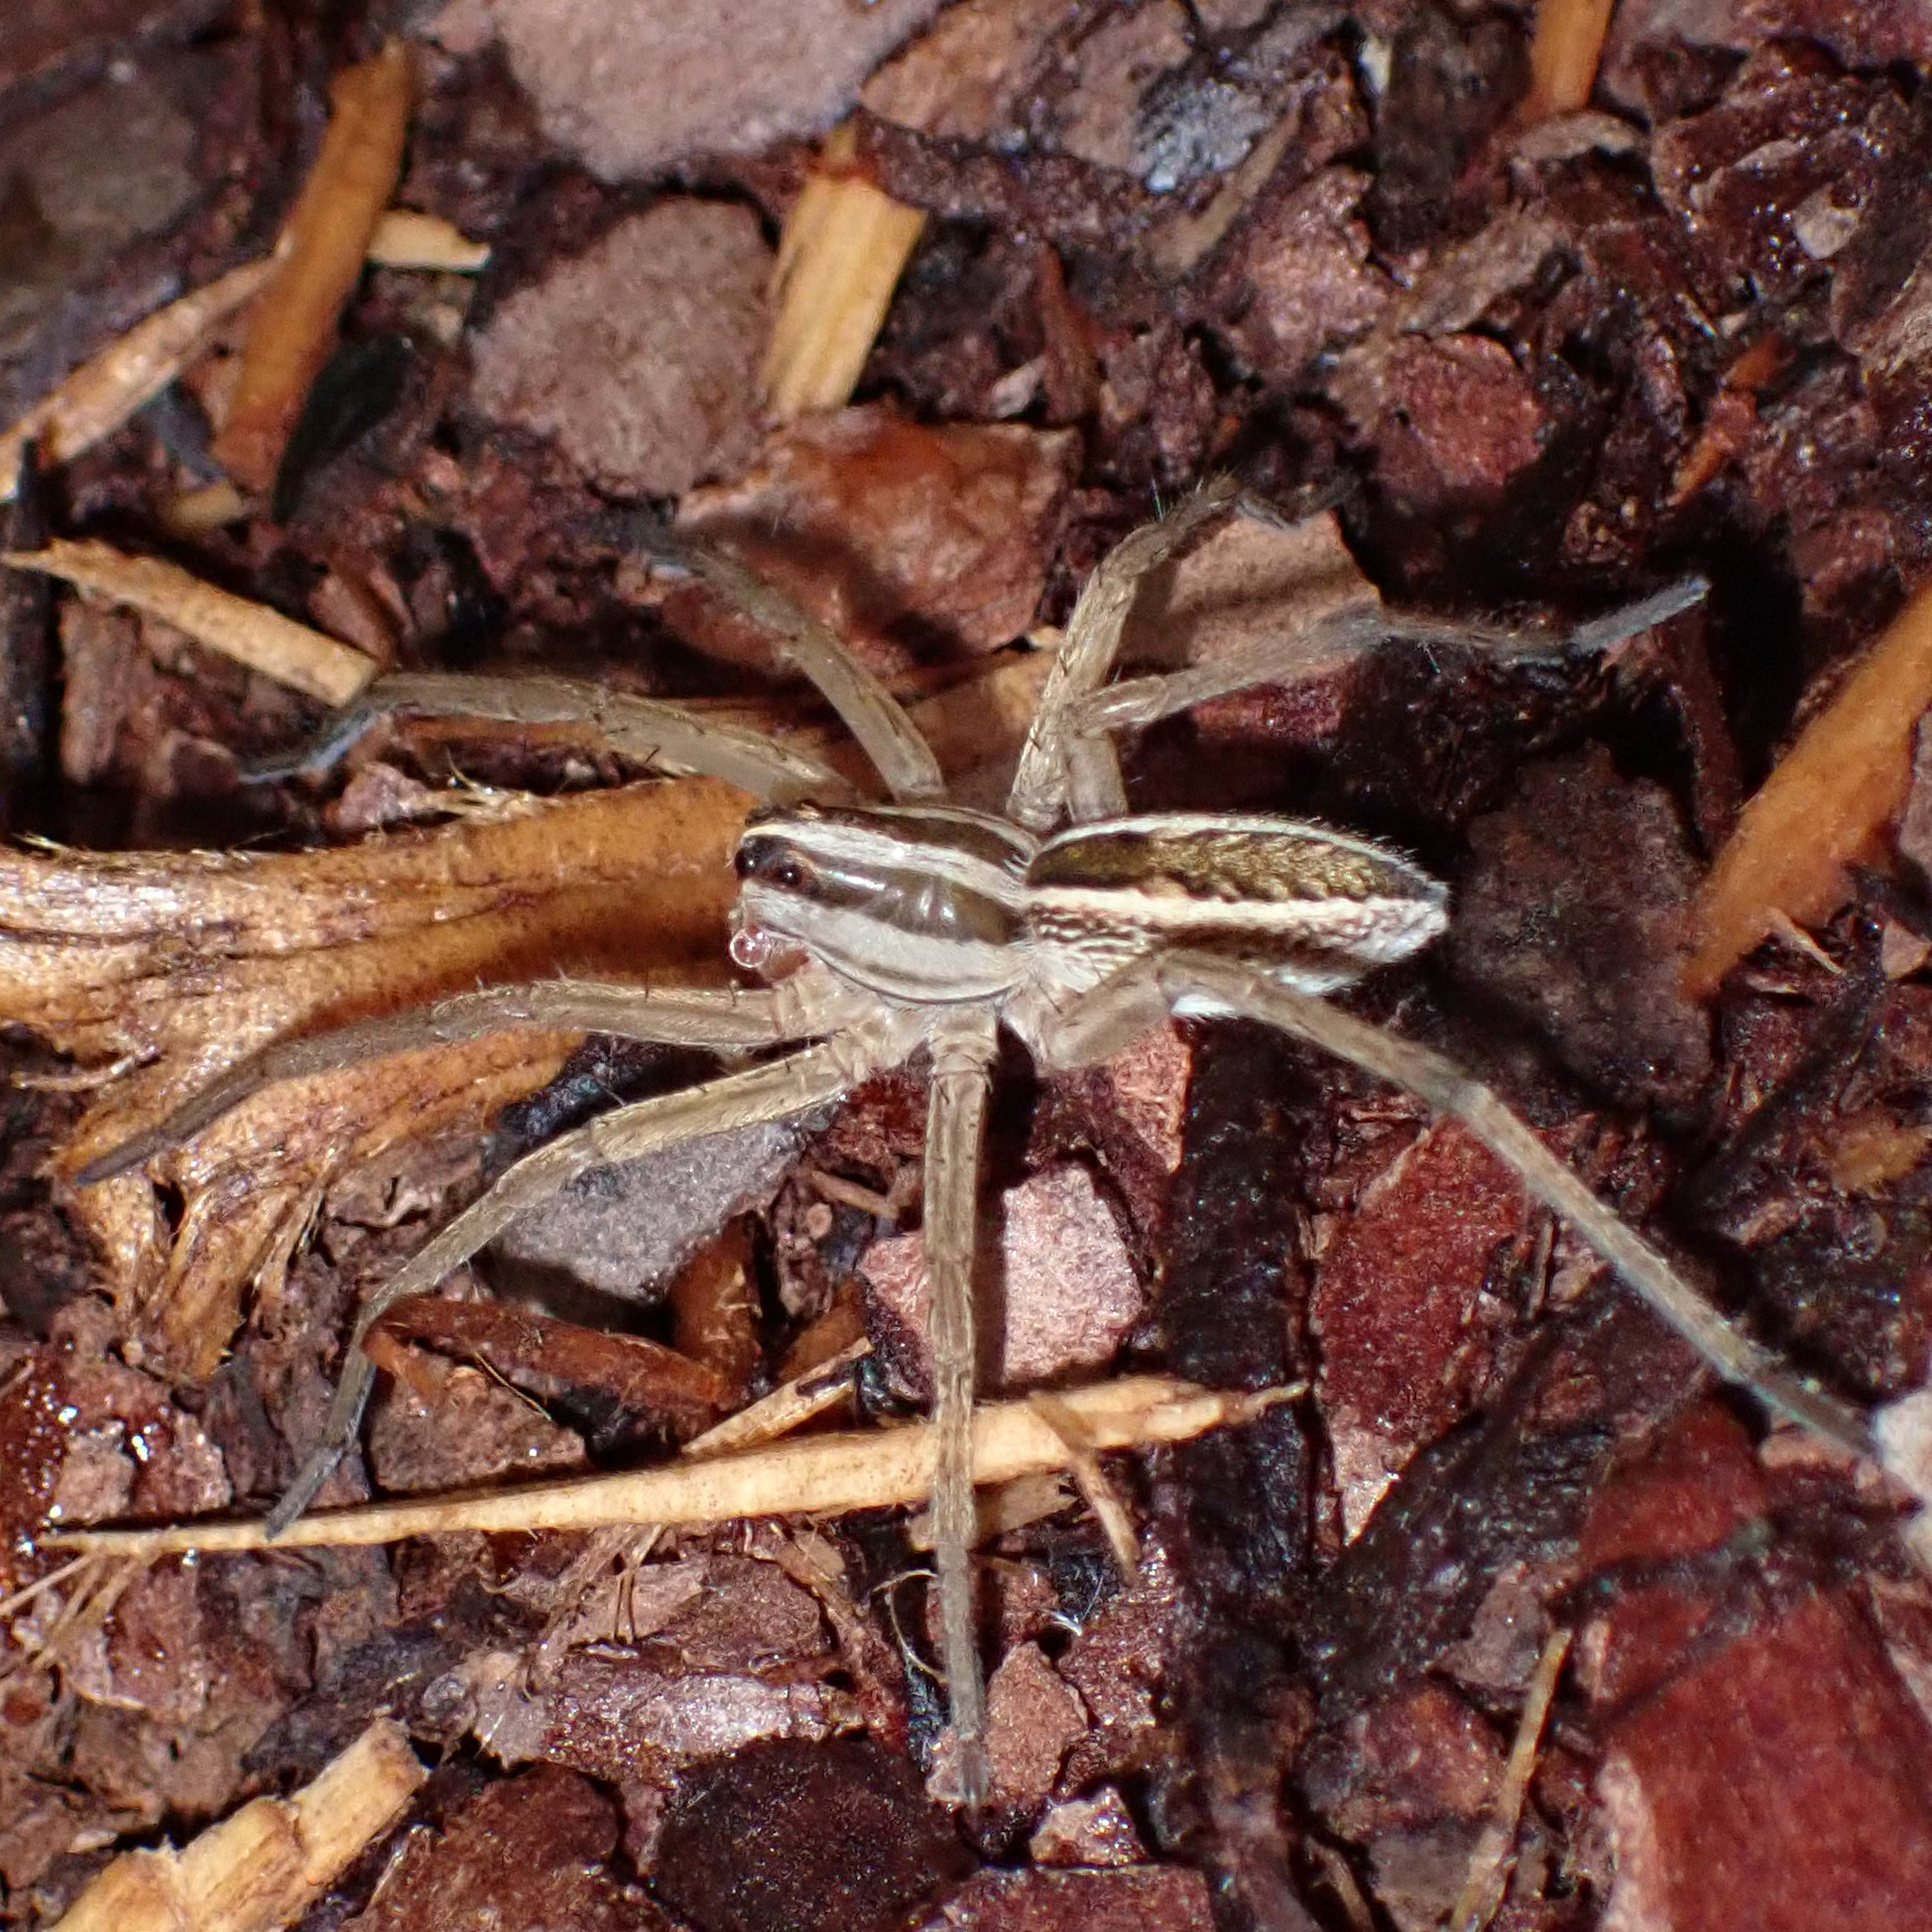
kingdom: Animalia
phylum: Arthropoda
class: Arachnida
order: Araneae
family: Lycosidae
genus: Rabidosa
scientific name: Rabidosa rabida
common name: Rabid wolf spider
